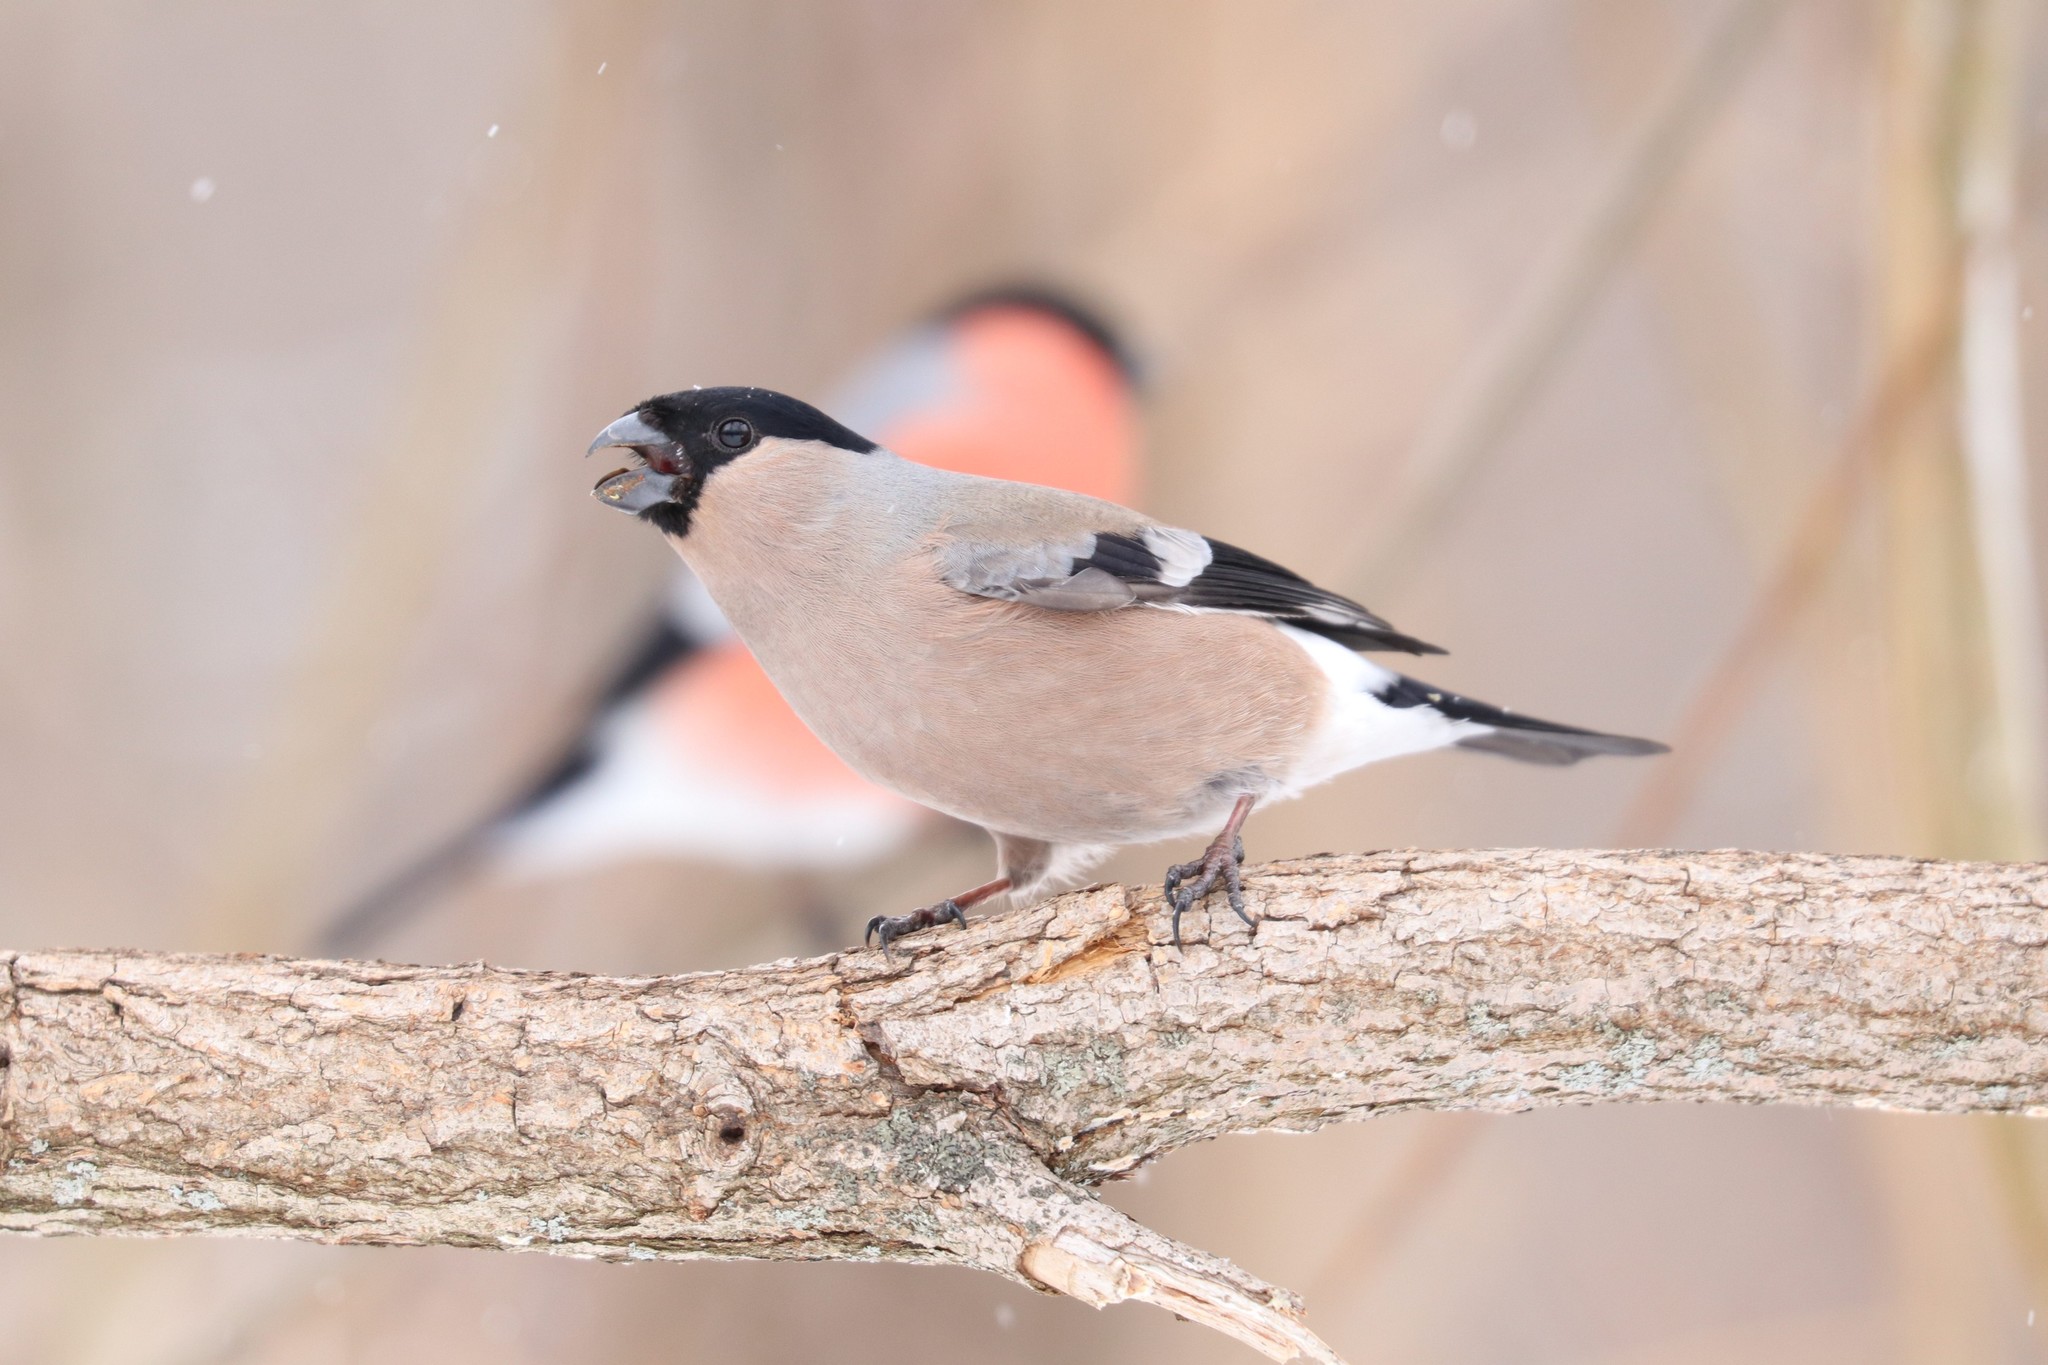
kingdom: Animalia
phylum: Chordata
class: Aves
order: Passeriformes
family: Fringillidae
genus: Pyrrhula
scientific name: Pyrrhula pyrrhula
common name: Eurasian bullfinch
